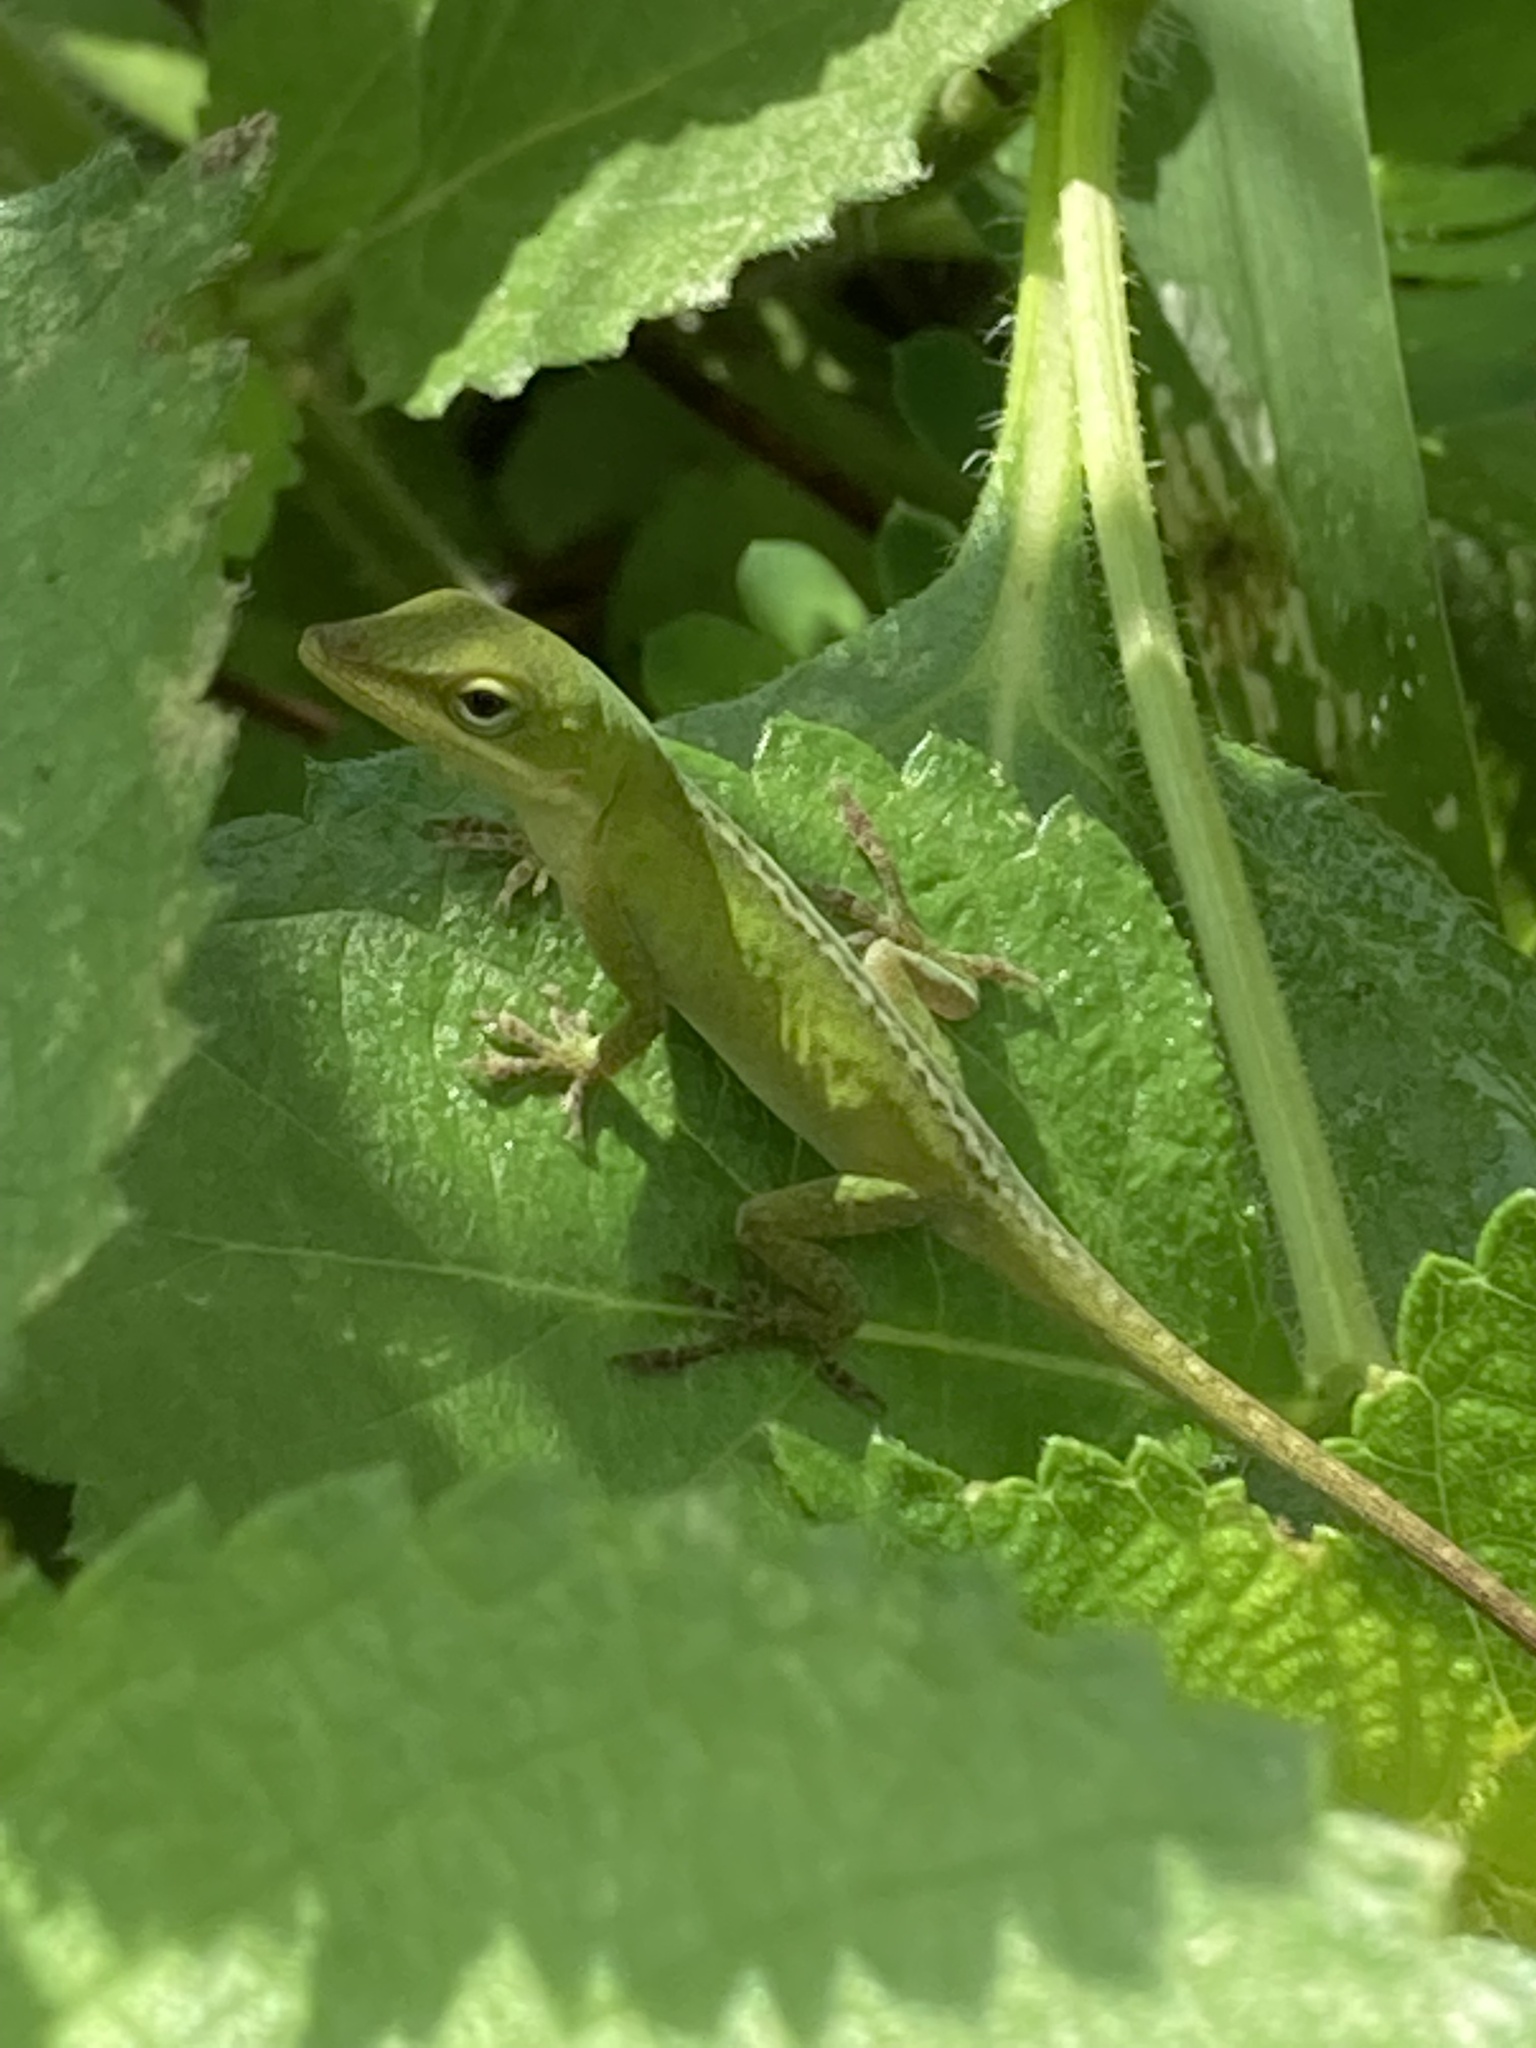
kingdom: Animalia
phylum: Chordata
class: Squamata
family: Dactyloidae
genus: Anolis
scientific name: Anolis carolinensis
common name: Green anole
